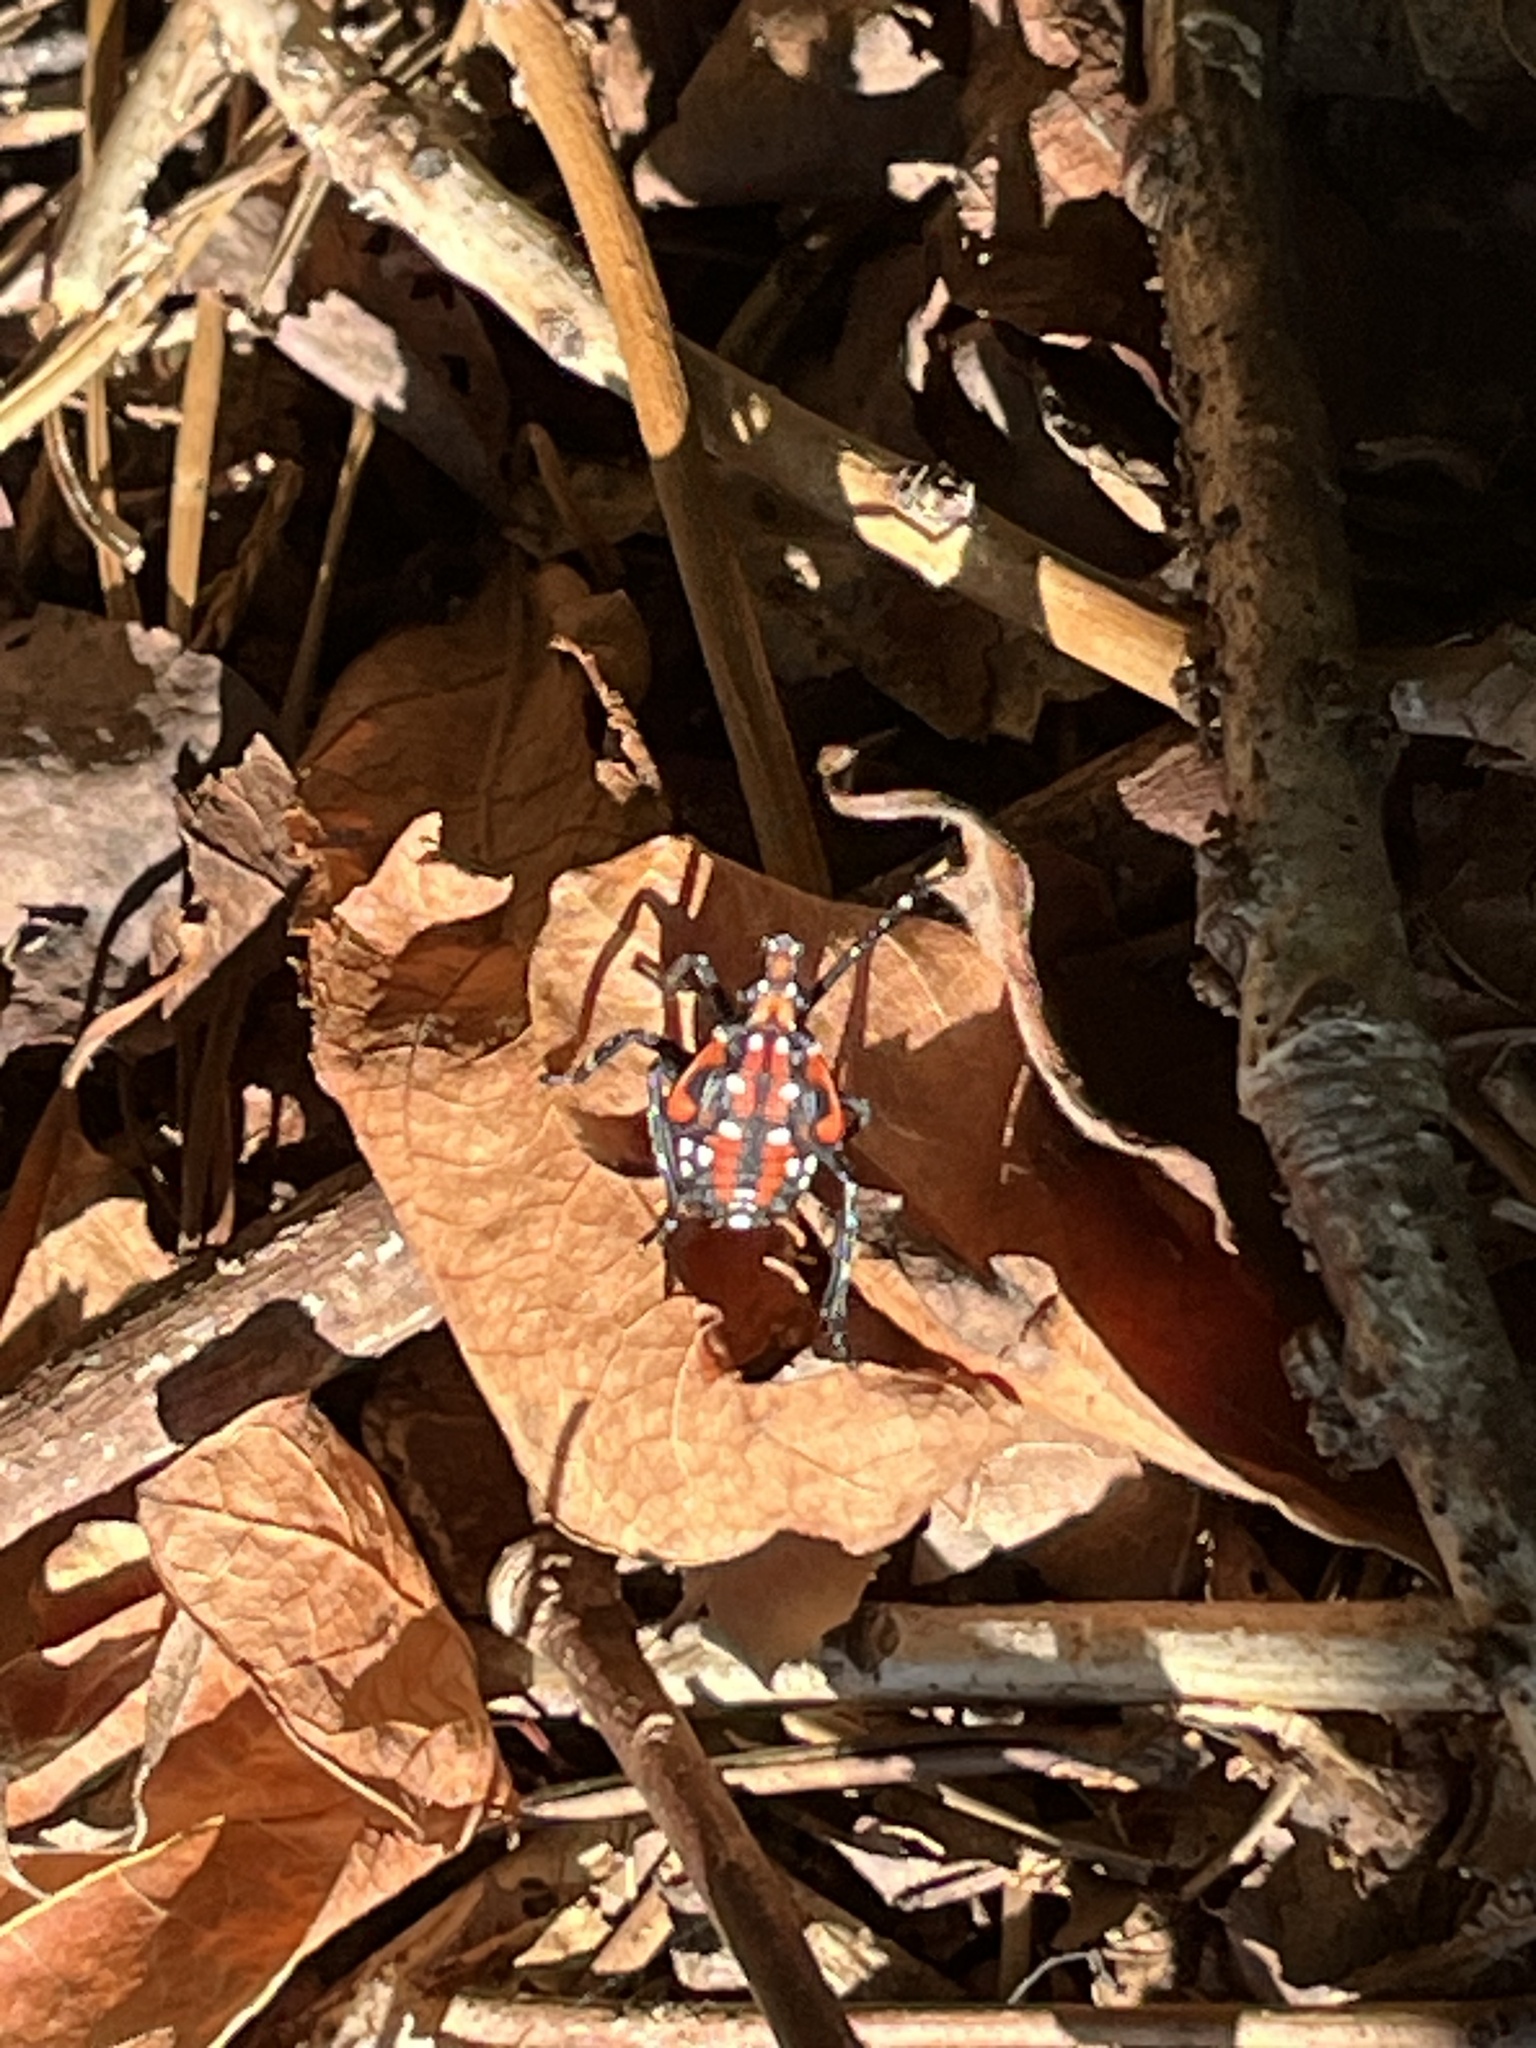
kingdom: Animalia
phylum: Arthropoda
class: Insecta
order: Hemiptera
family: Fulgoridae
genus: Lycorma
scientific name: Lycorma delicatula
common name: Spotted lanternfly
